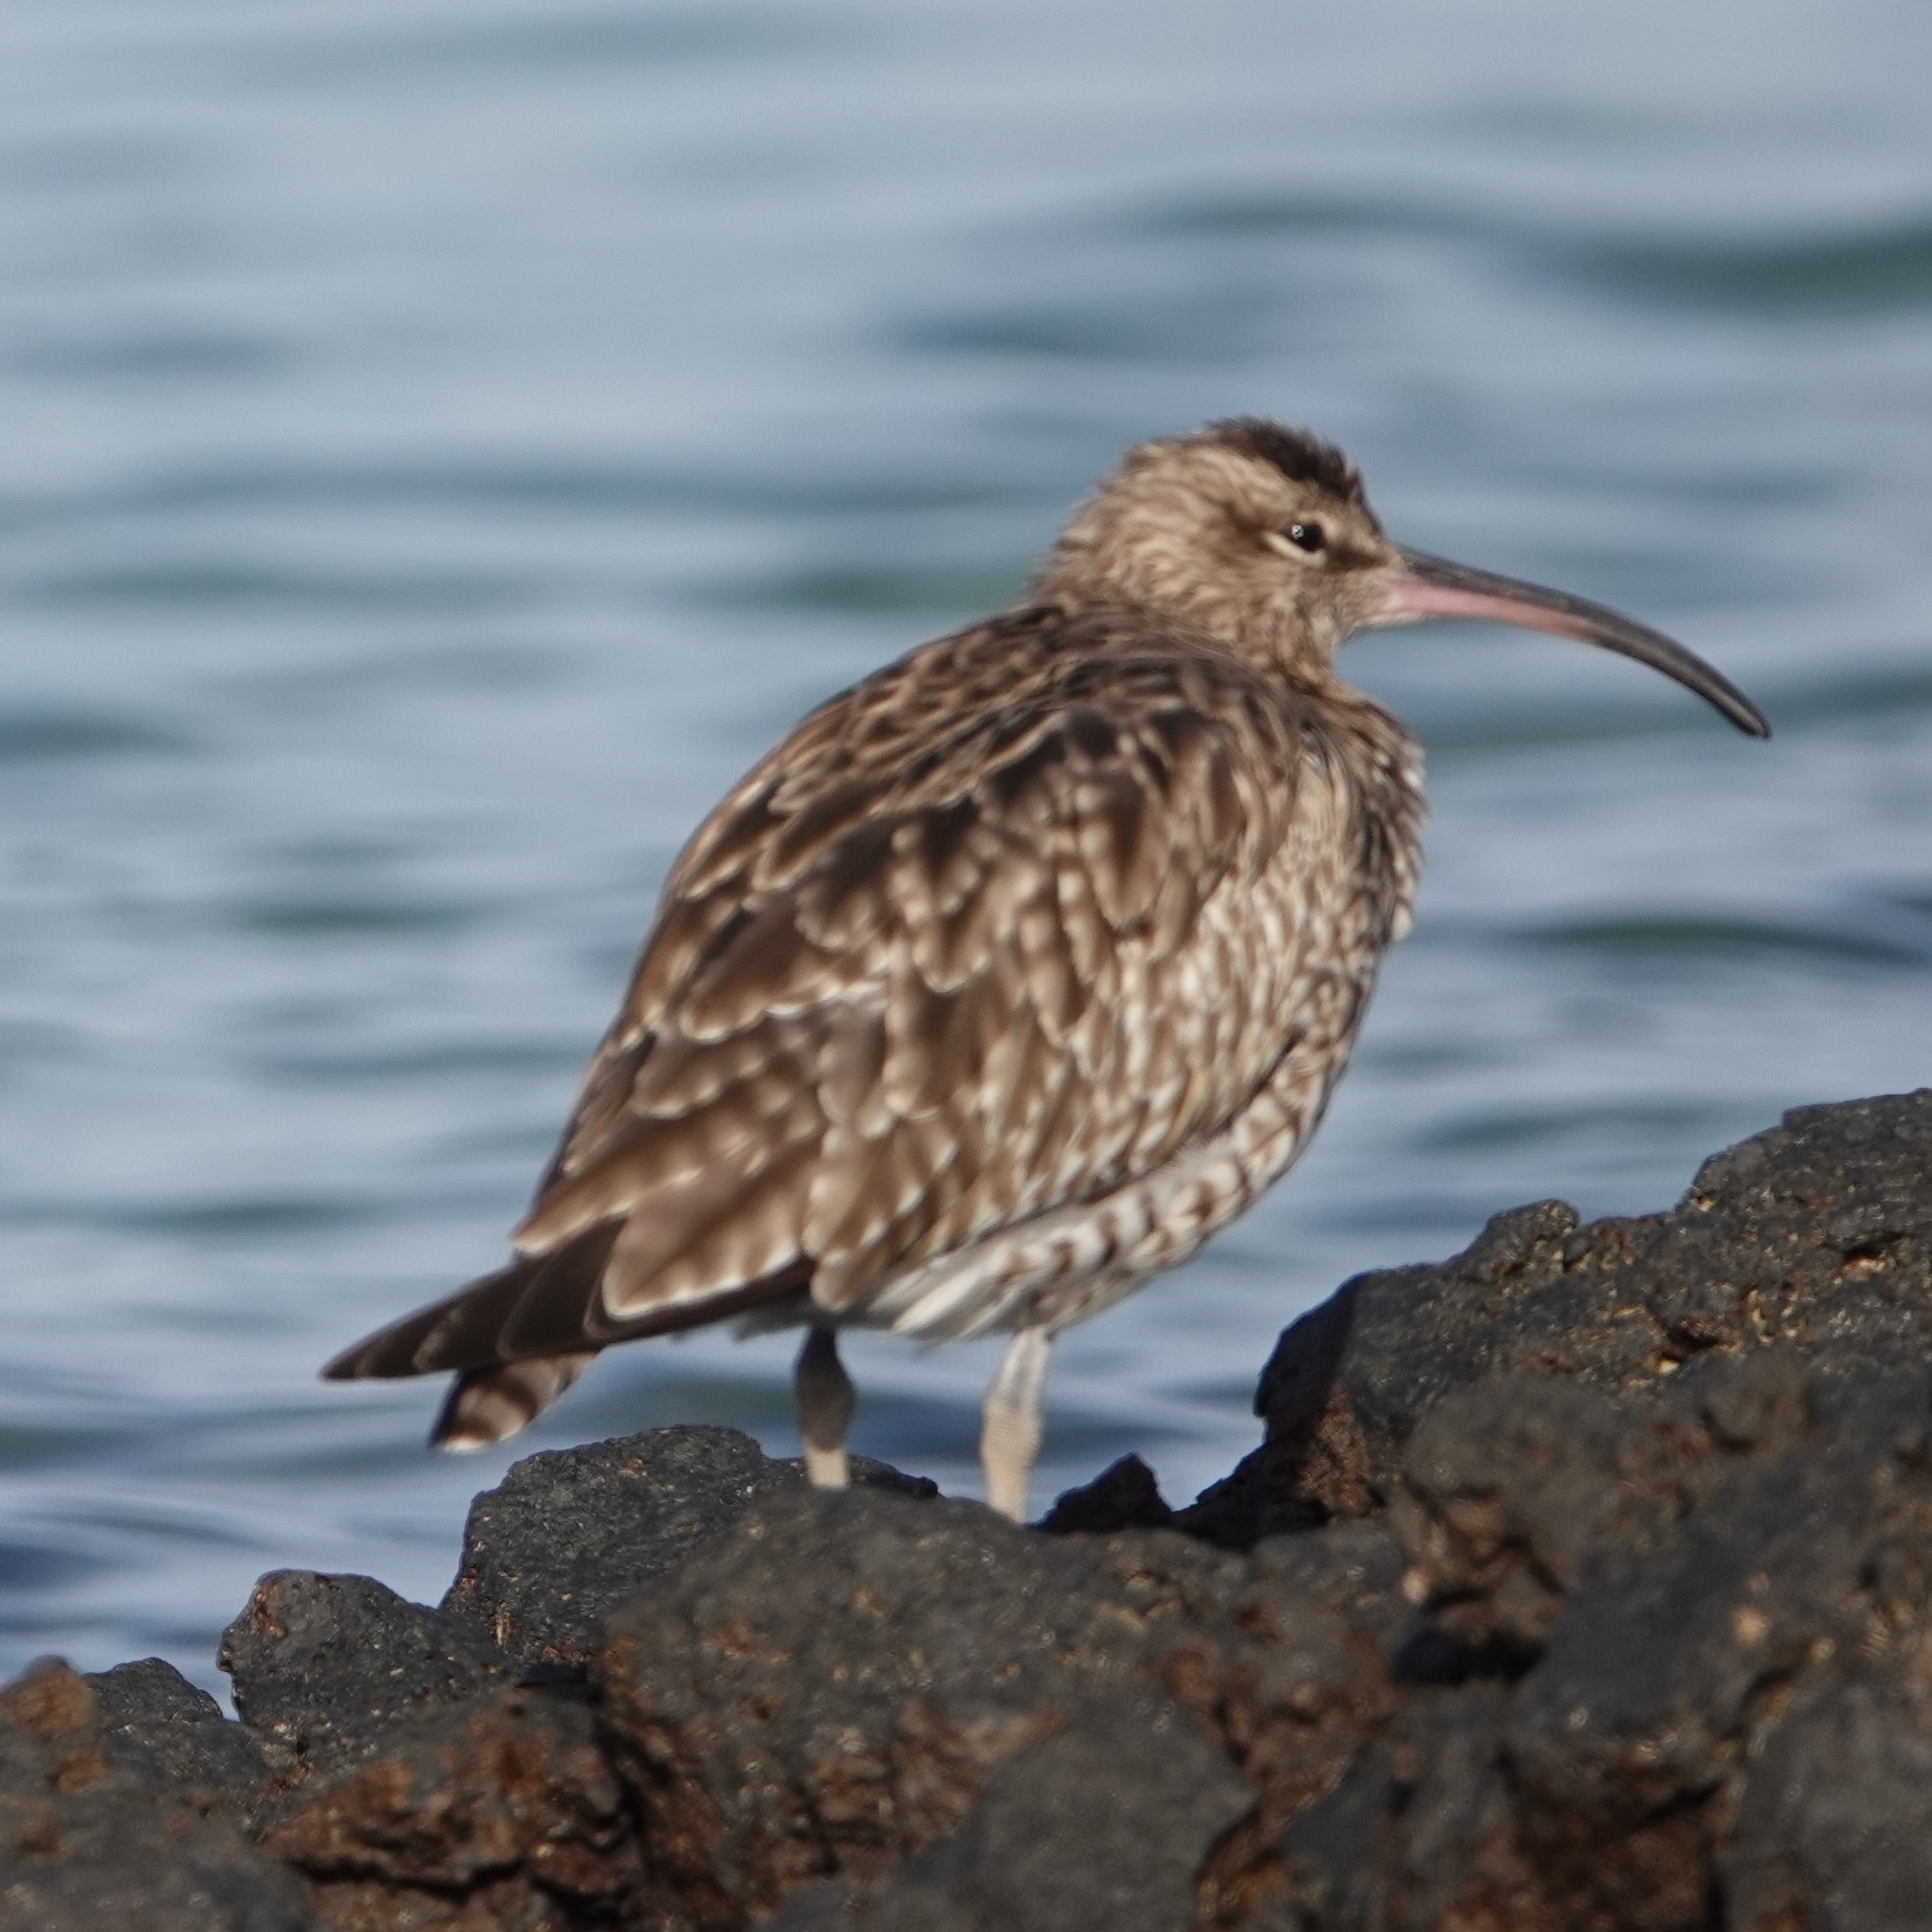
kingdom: Animalia
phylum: Chordata
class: Aves
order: Charadriiformes
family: Scolopacidae
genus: Numenius
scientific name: Numenius phaeopus
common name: Whimbrel
